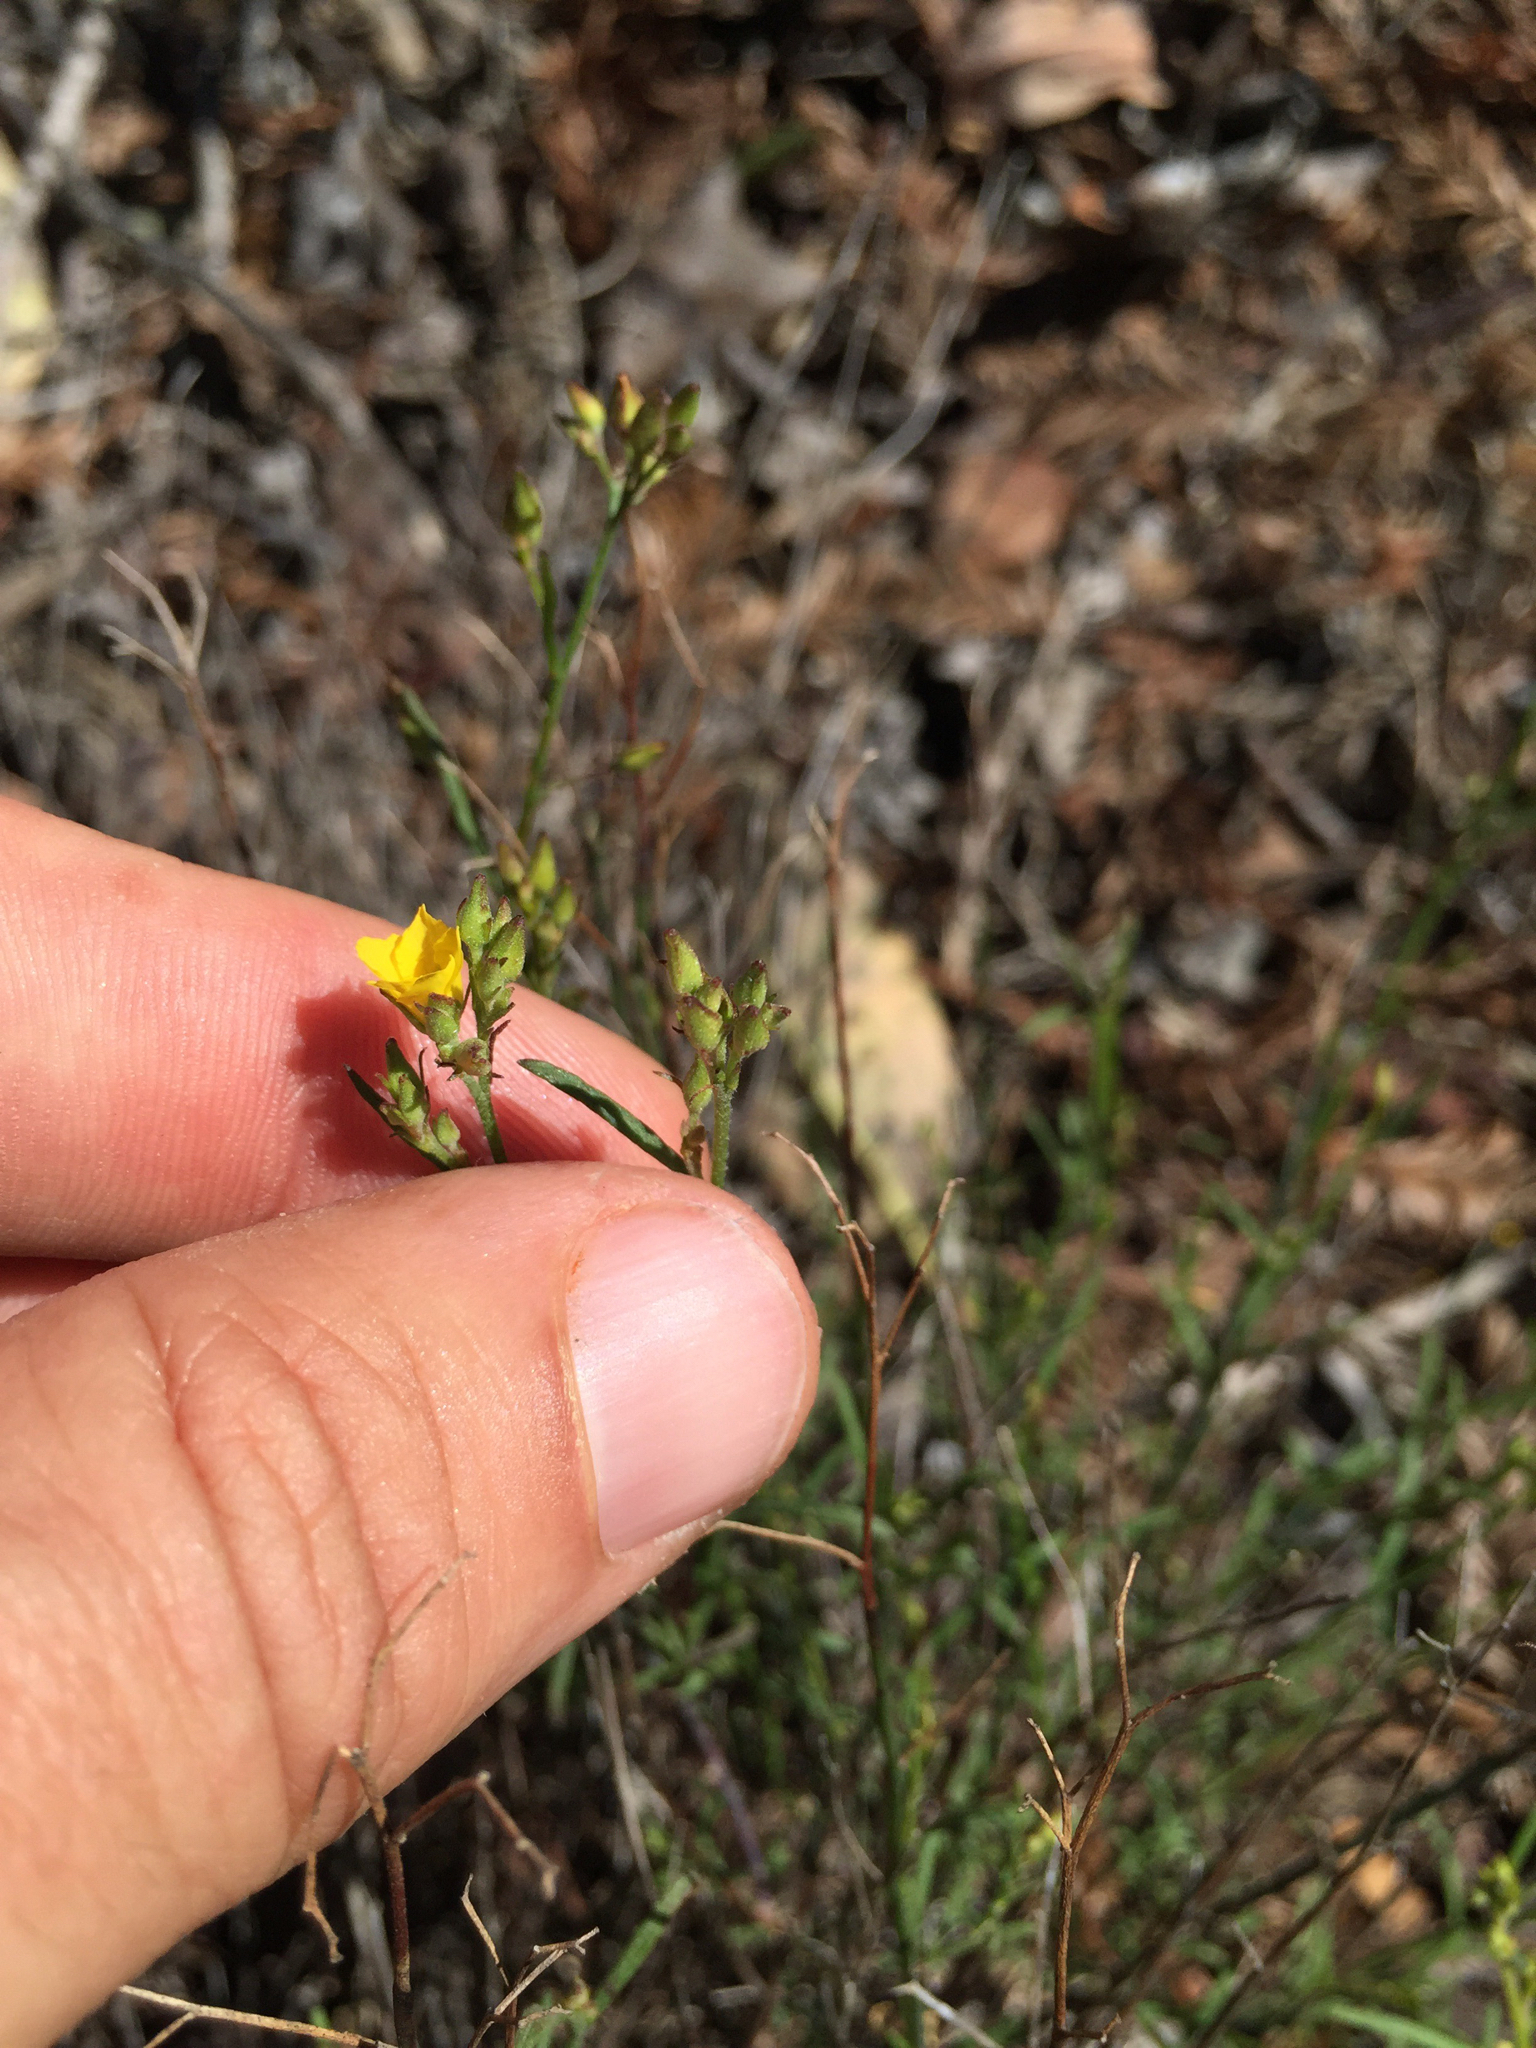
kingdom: Plantae
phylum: Tracheophyta
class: Magnoliopsida
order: Malvales
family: Cistaceae
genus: Crocanthemum
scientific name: Crocanthemum scoparium
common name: Broom-rose
